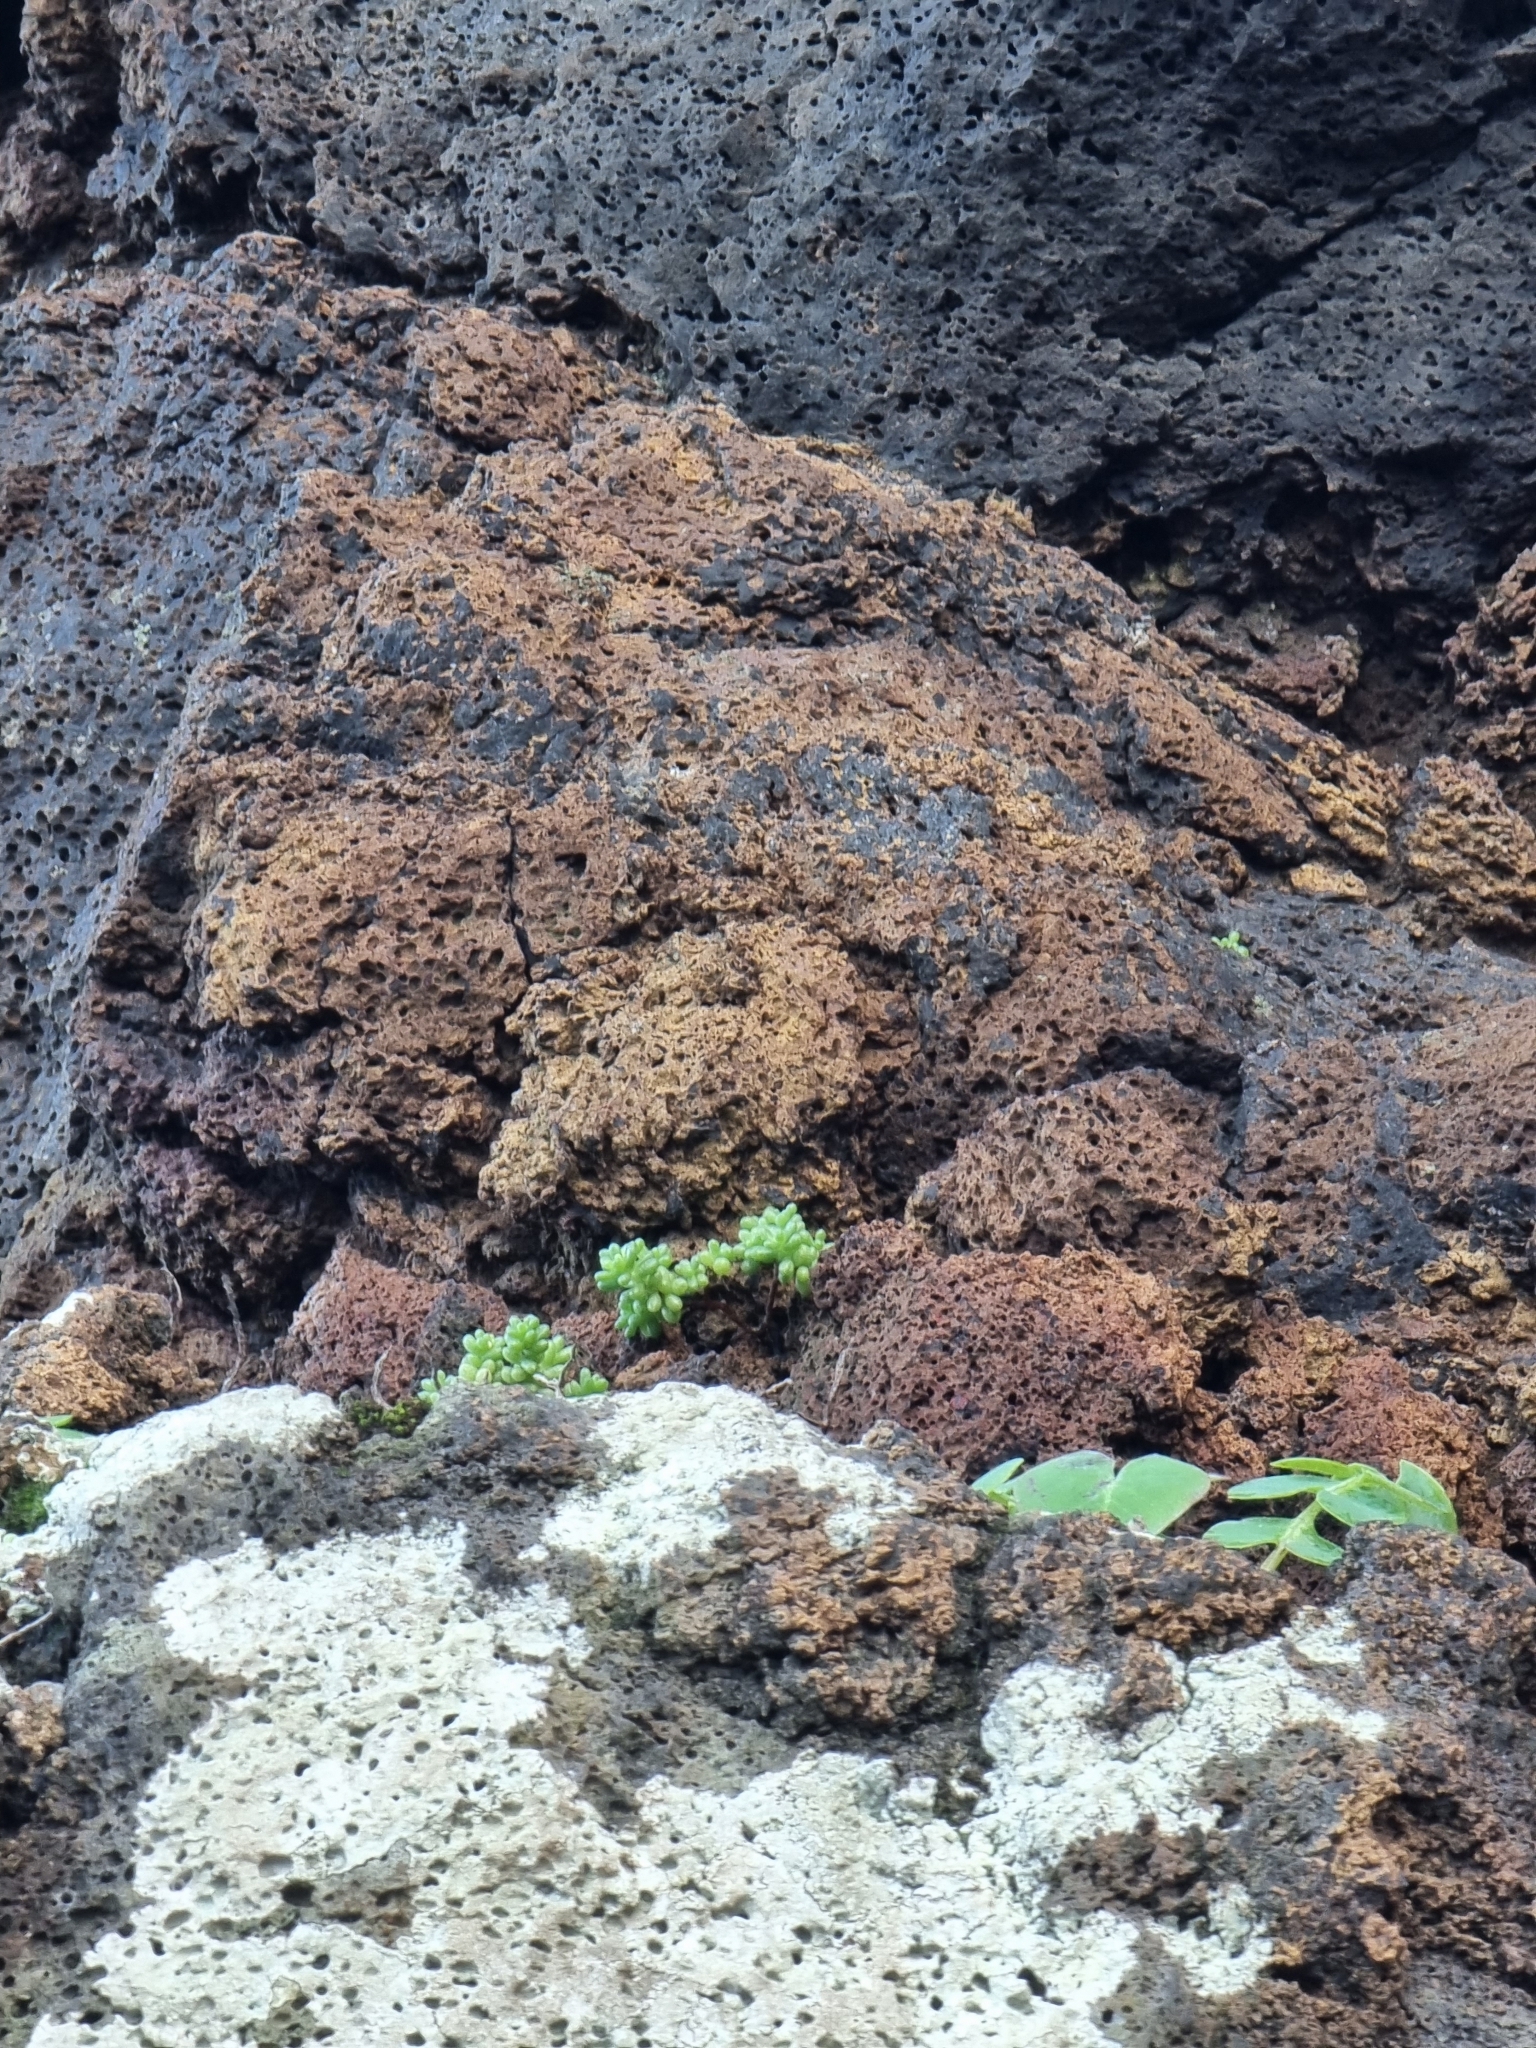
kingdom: Plantae
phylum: Tracheophyta
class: Magnoliopsida
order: Saxifragales
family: Crassulaceae
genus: Sedum
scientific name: Sedum brissemoretii
